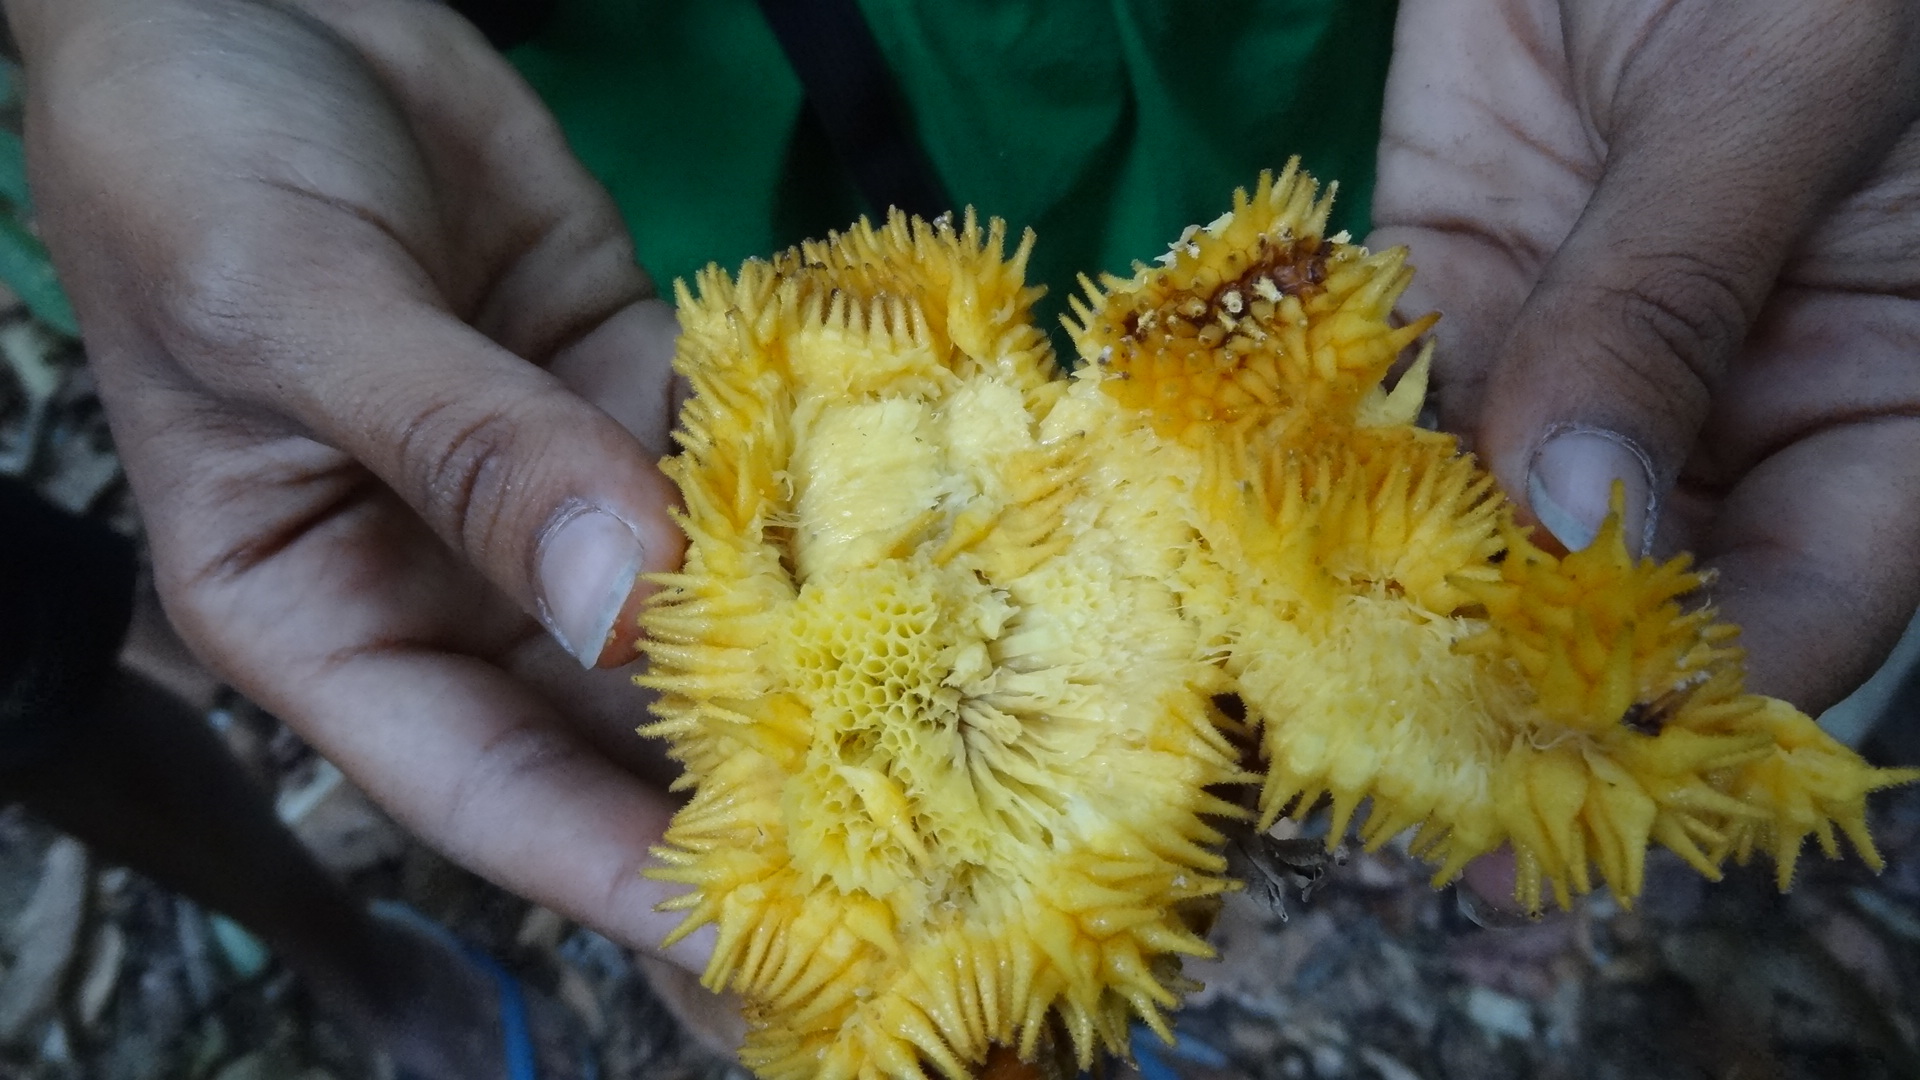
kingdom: Plantae
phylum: Tracheophyta
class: Magnoliopsida
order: Rosales
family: Moraceae
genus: Artocarpus
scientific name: Artocarpus hirsutus
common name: Hairy bread-fruit tree
